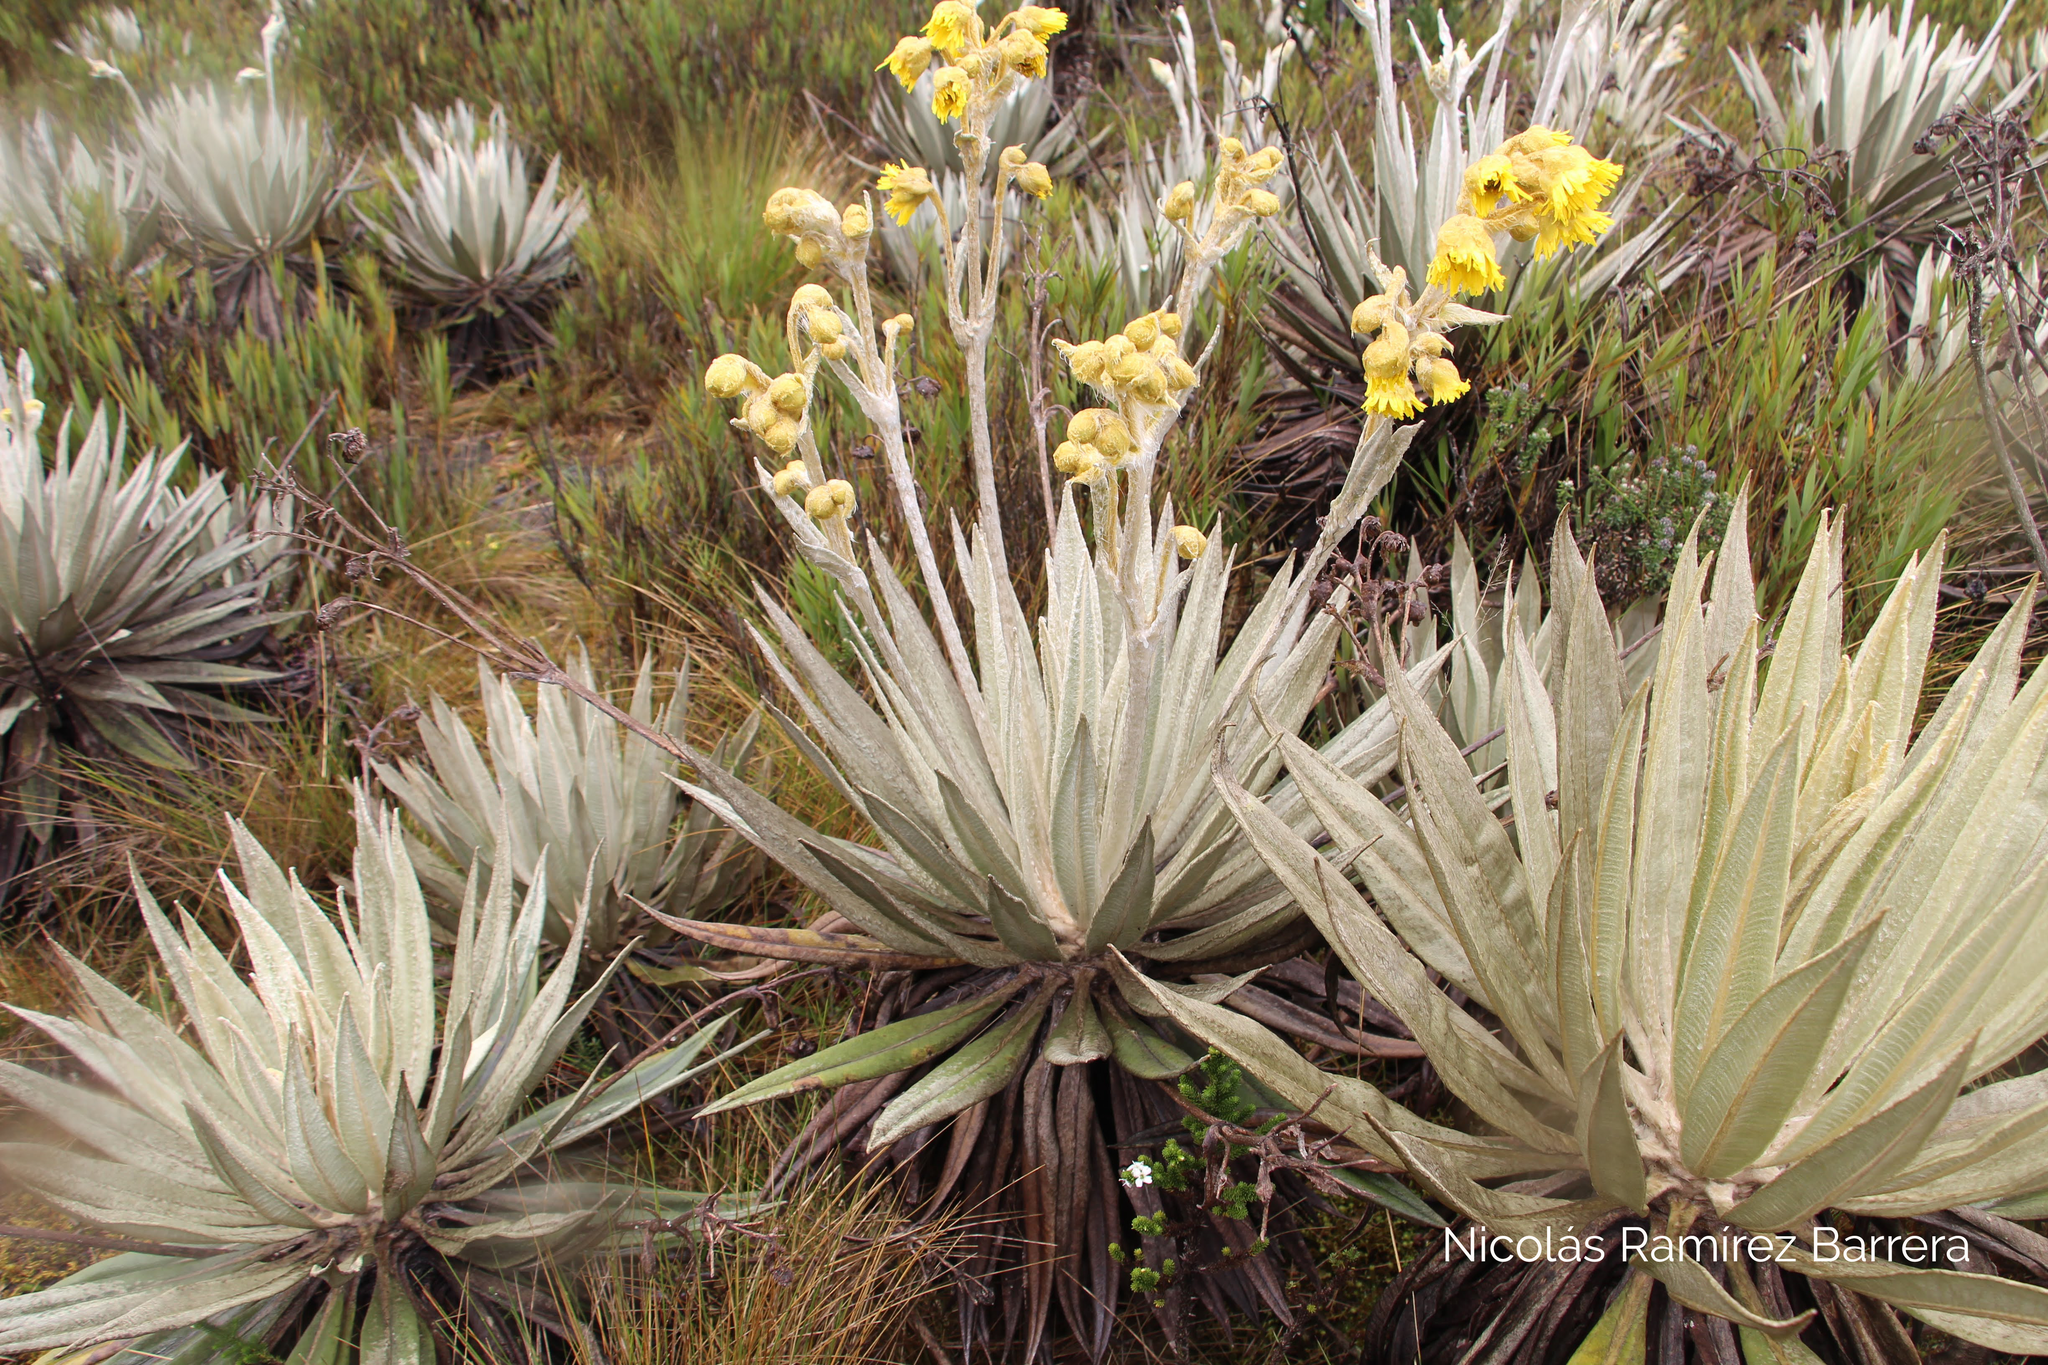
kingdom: Plantae
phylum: Tracheophyta
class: Magnoliopsida
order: Asterales
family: Asteraceae
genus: Espeletia
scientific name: Espeletia grandiflora
